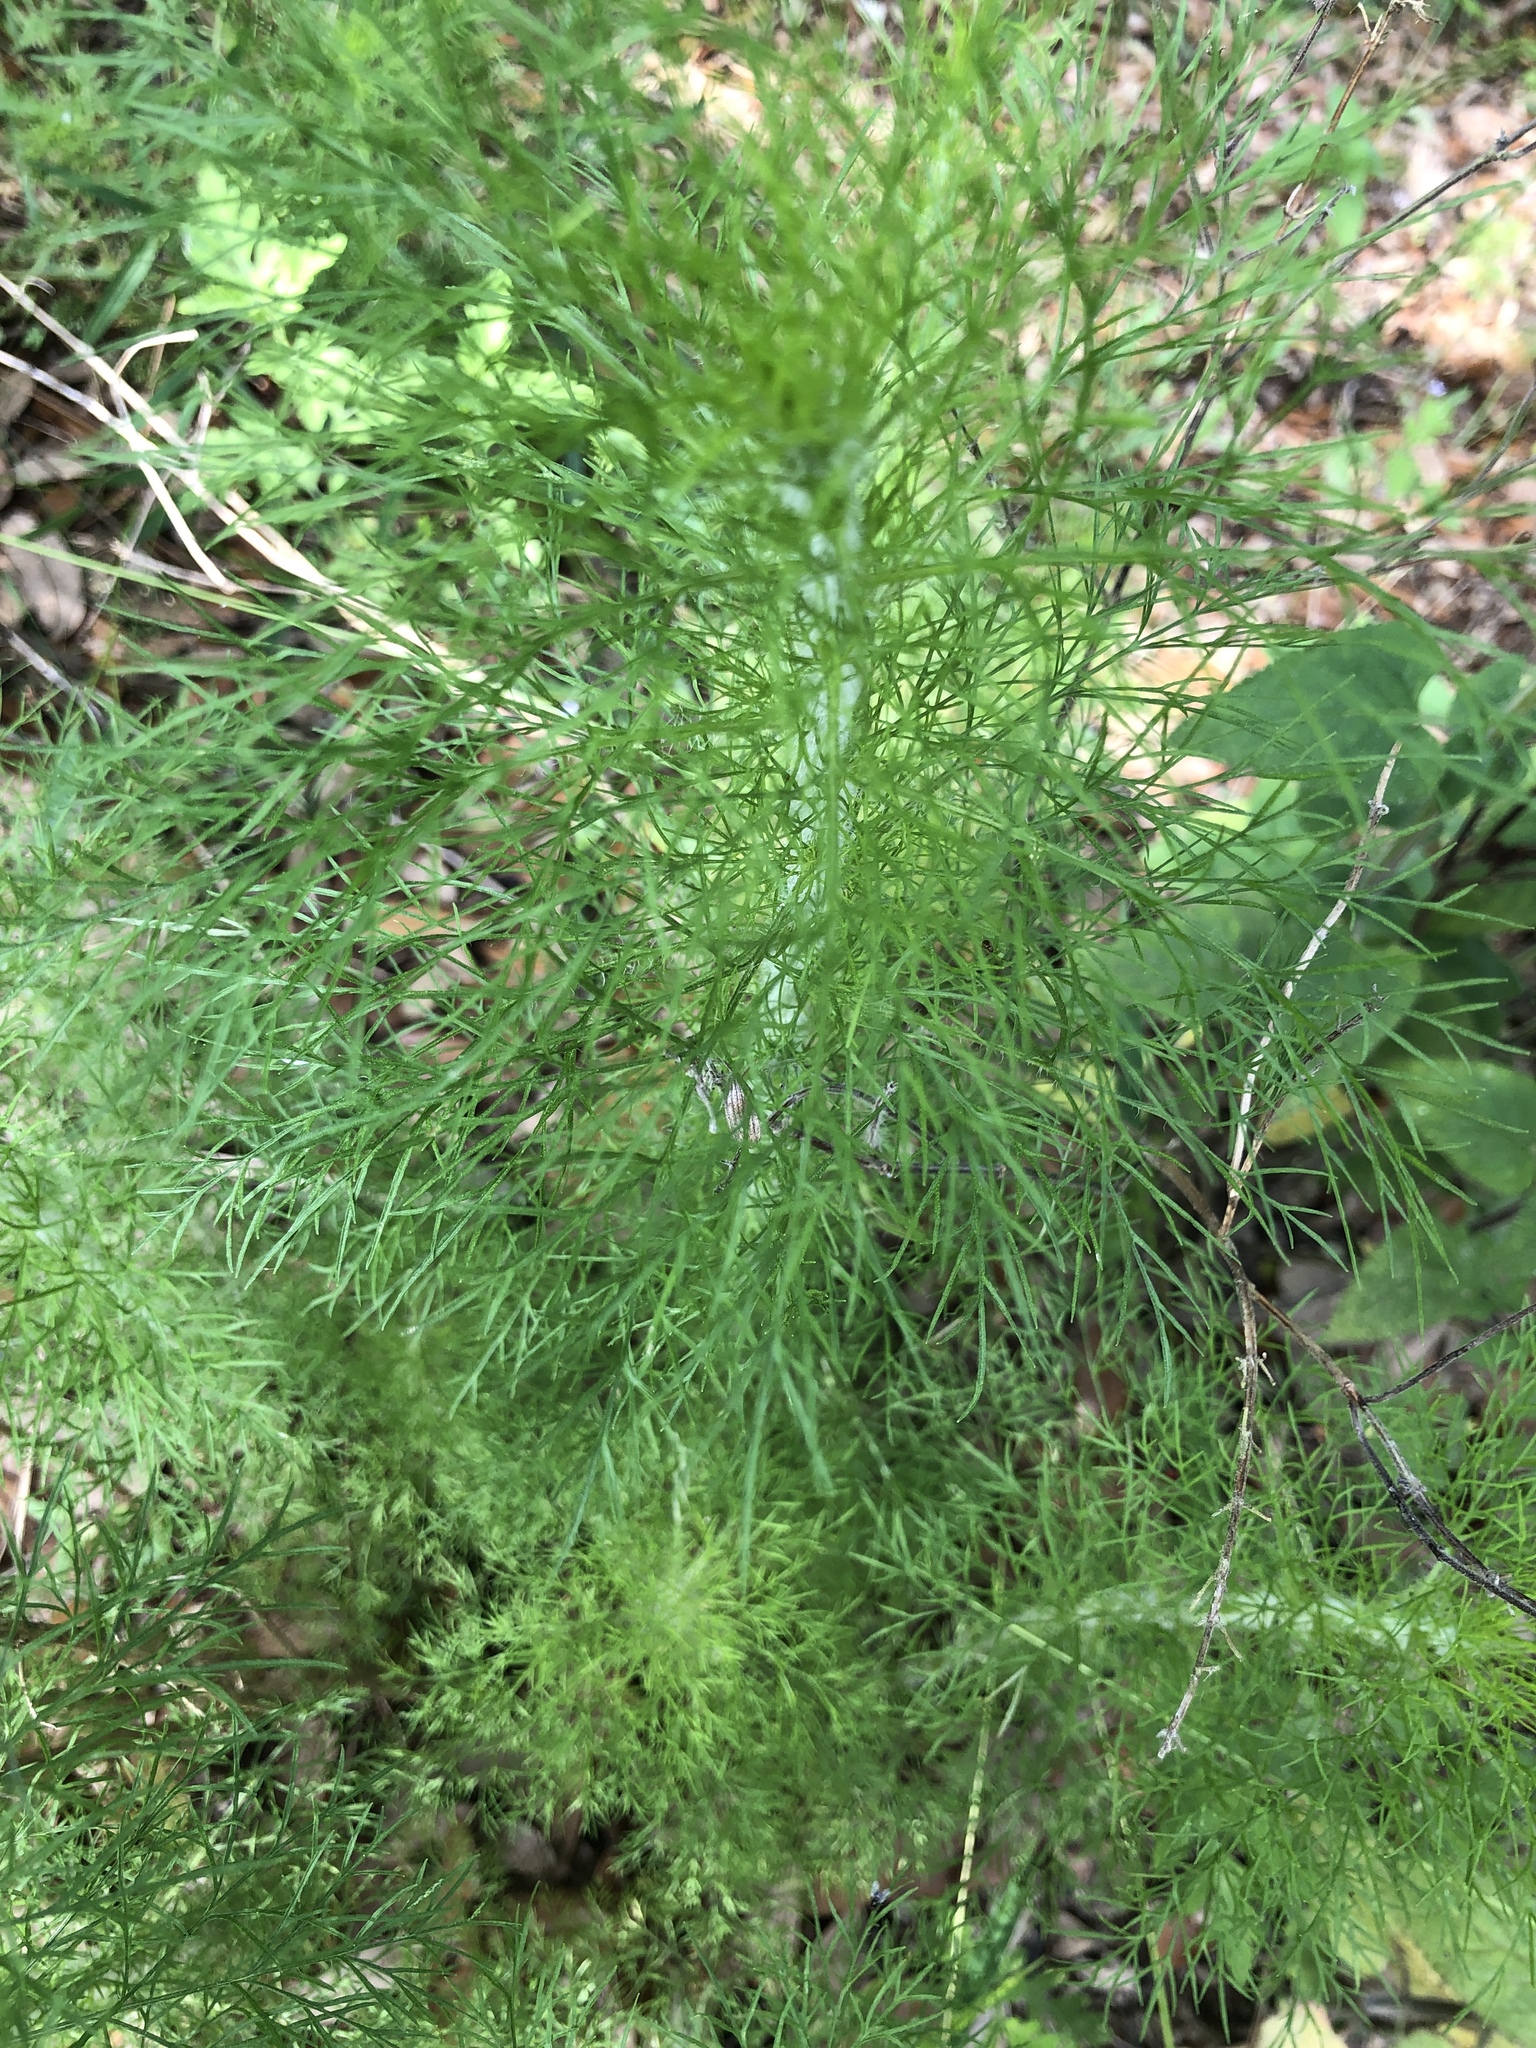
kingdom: Plantae
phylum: Tracheophyta
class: Magnoliopsida
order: Asterales
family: Asteraceae
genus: Eupatorium
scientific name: Eupatorium capillifolium
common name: Dog-fennel
